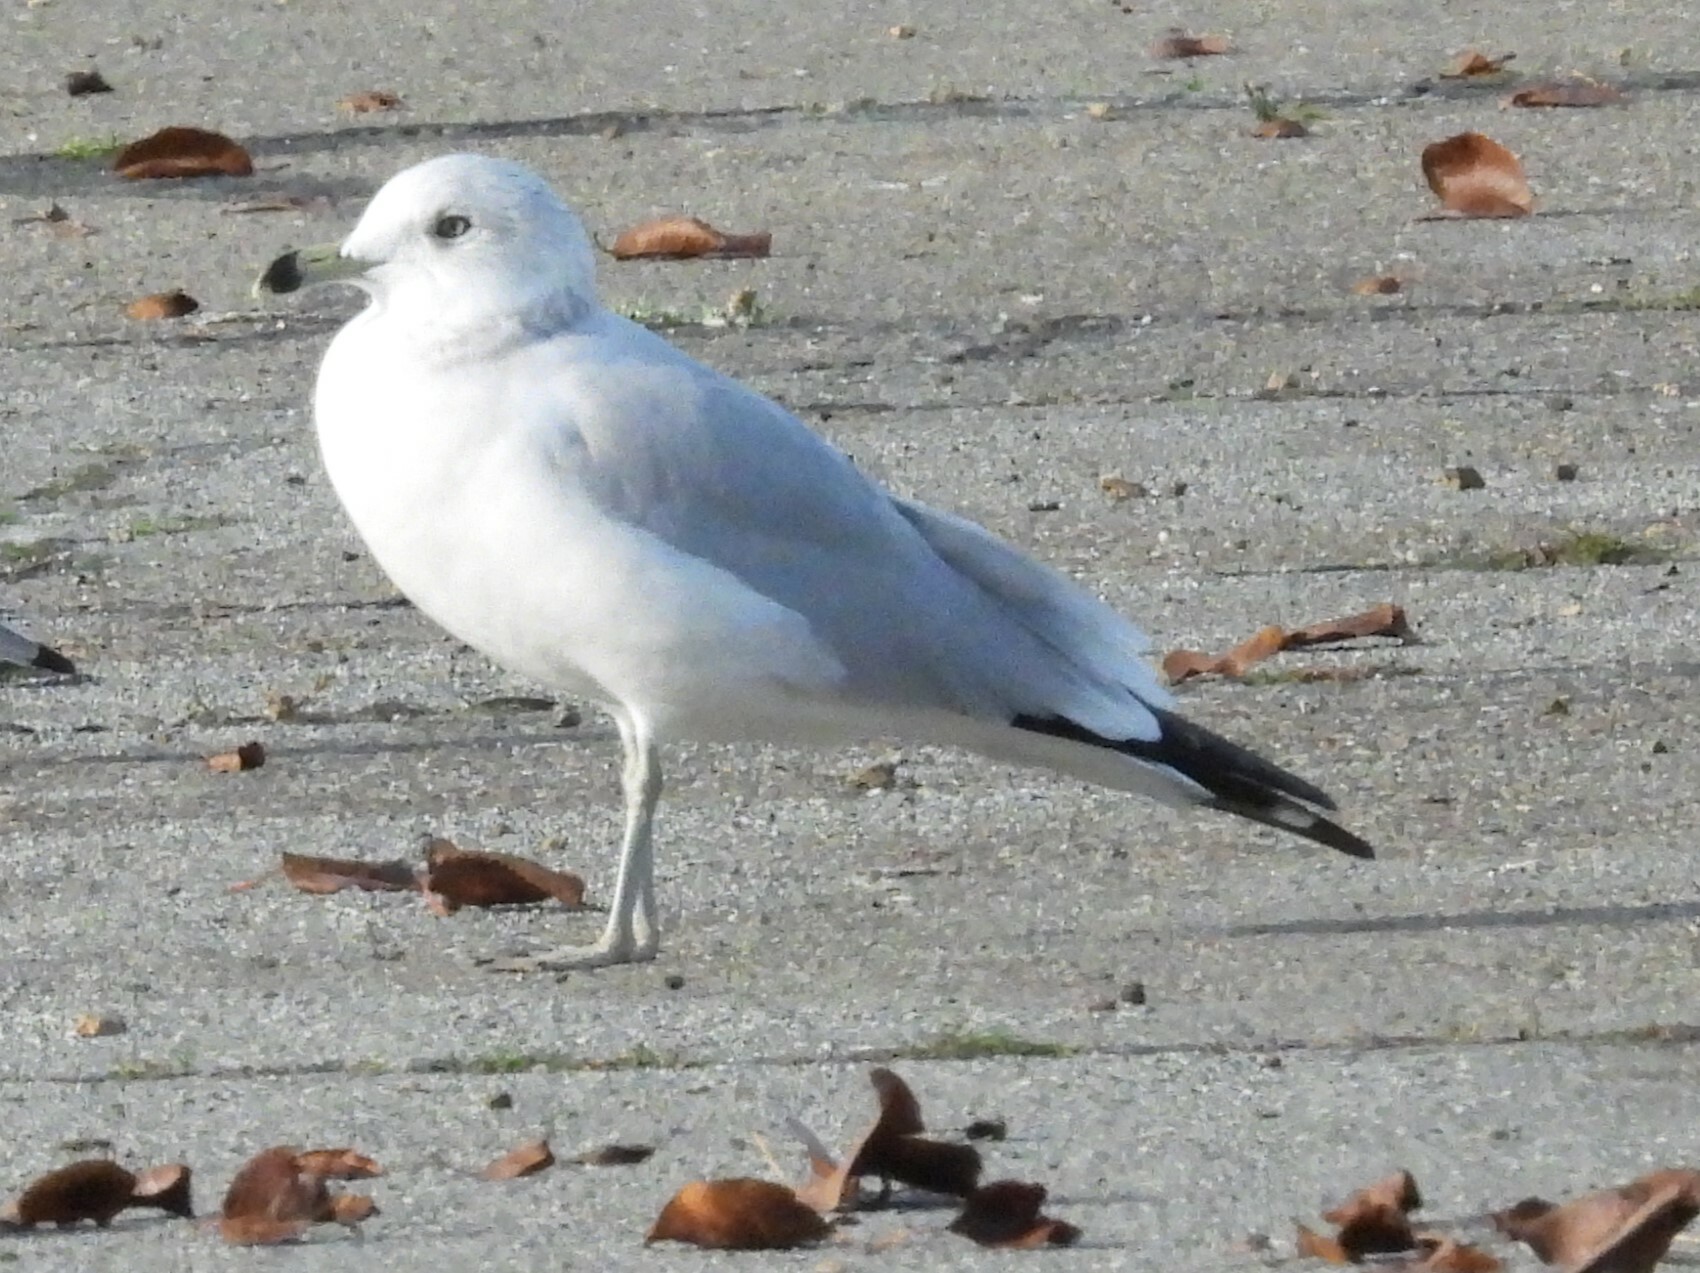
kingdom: Animalia
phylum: Chordata
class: Aves
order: Charadriiformes
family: Laridae
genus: Larus
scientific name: Larus delawarensis
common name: Ring-billed gull
